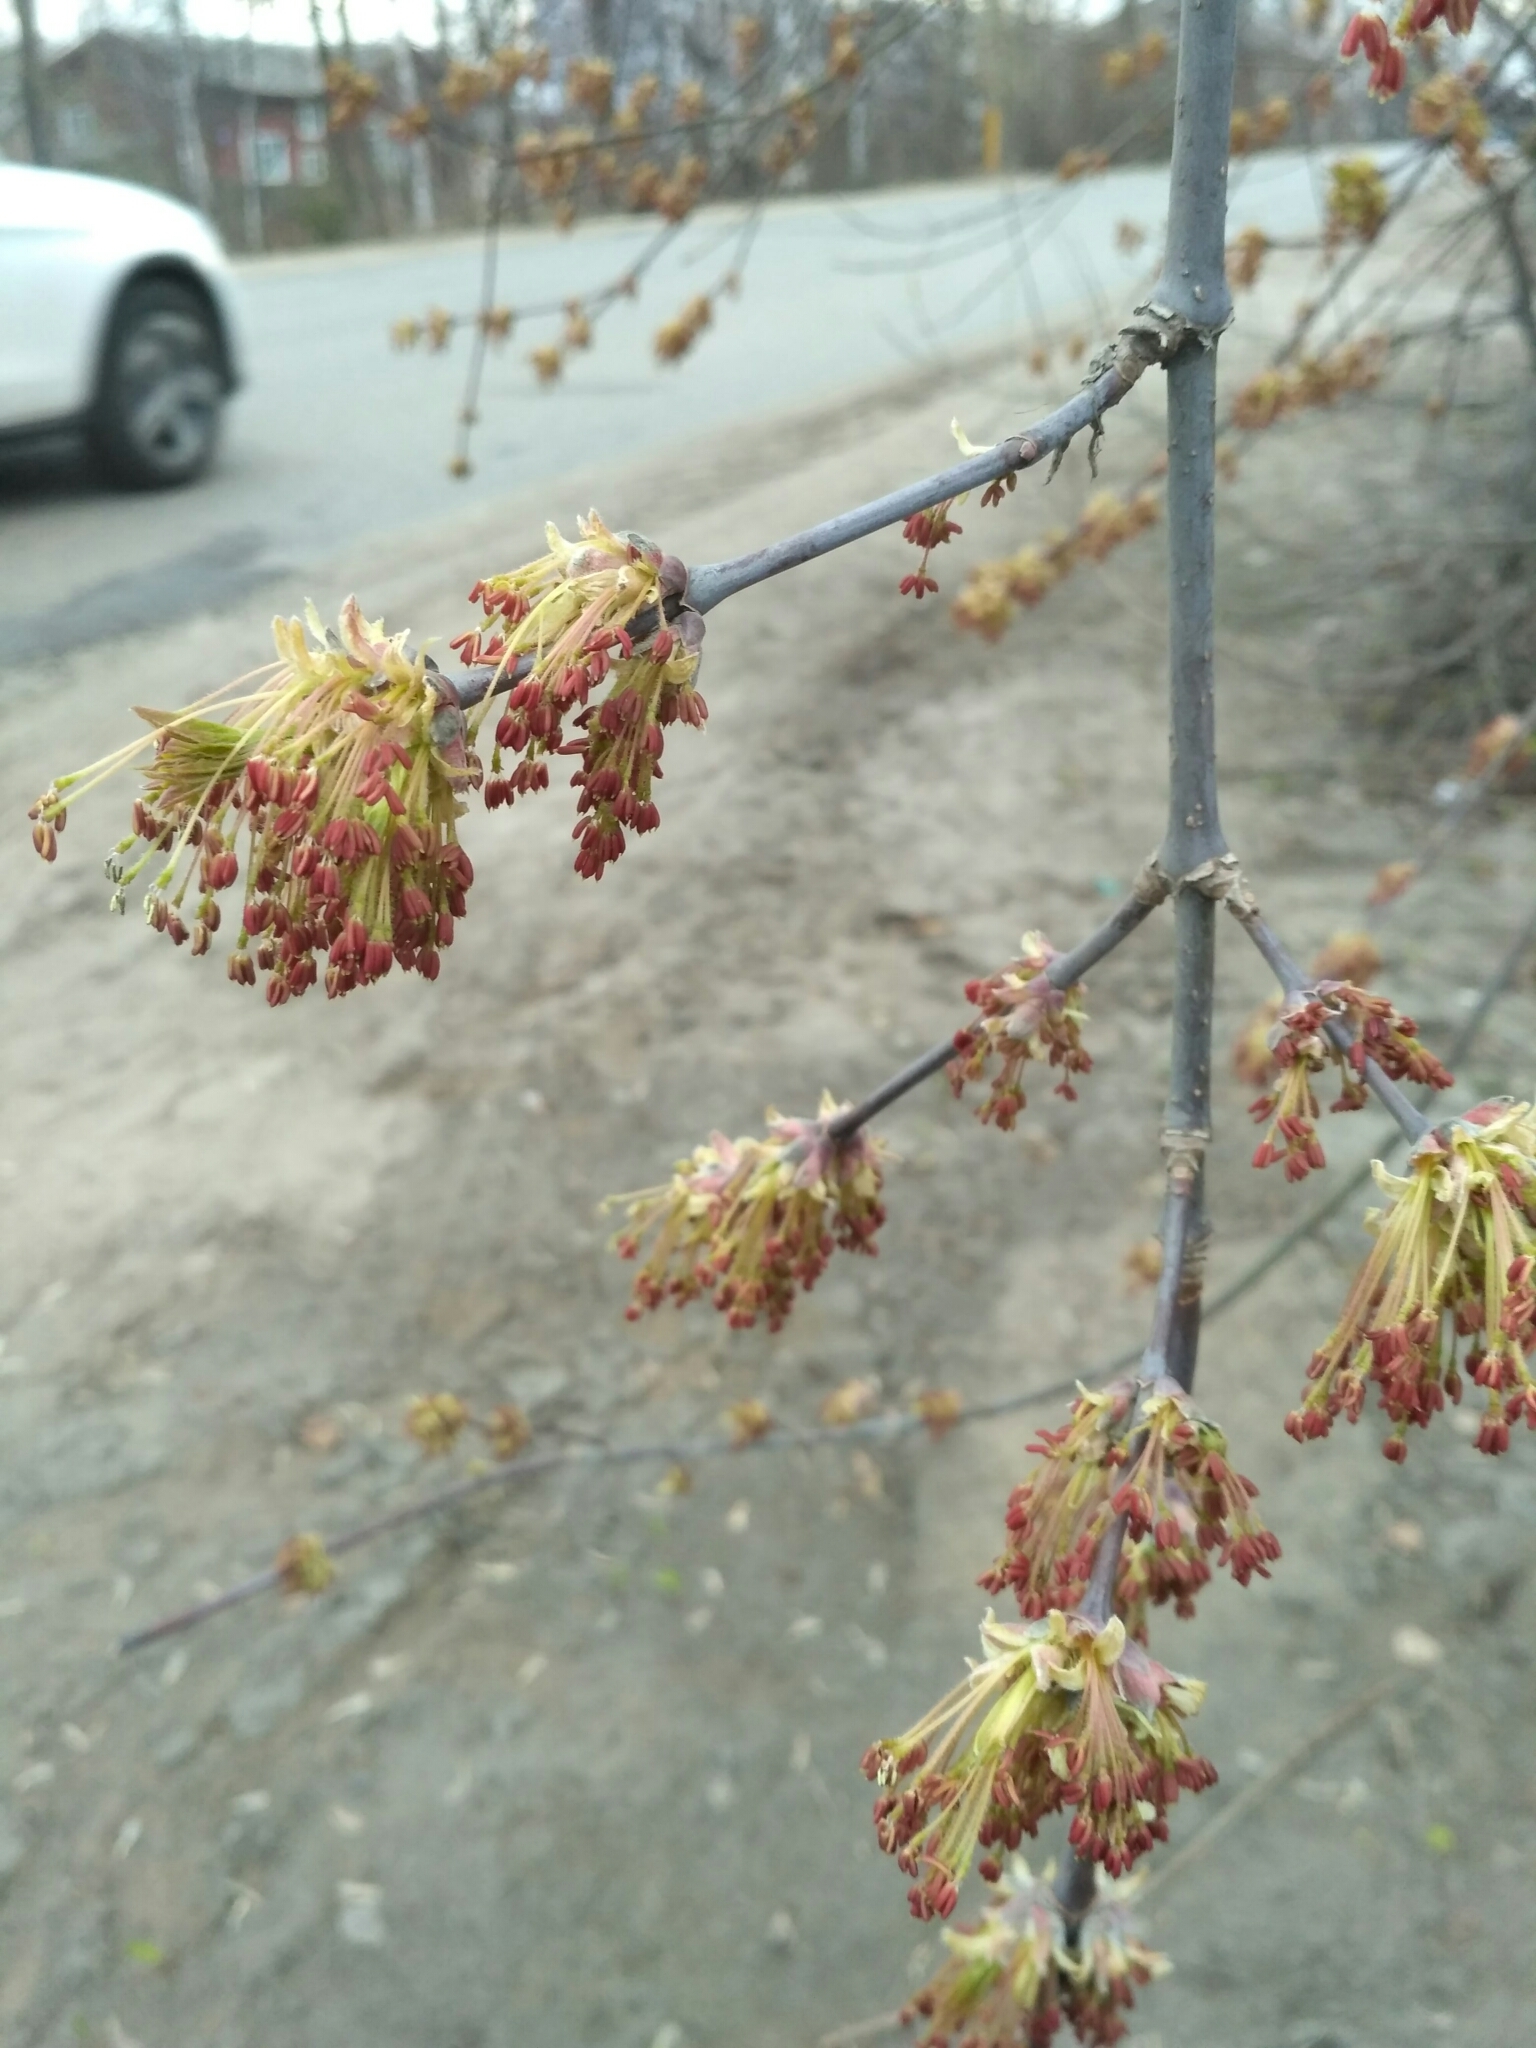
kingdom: Plantae
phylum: Tracheophyta
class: Magnoliopsida
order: Sapindales
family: Sapindaceae
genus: Acer
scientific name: Acer negundo
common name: Ashleaf maple
